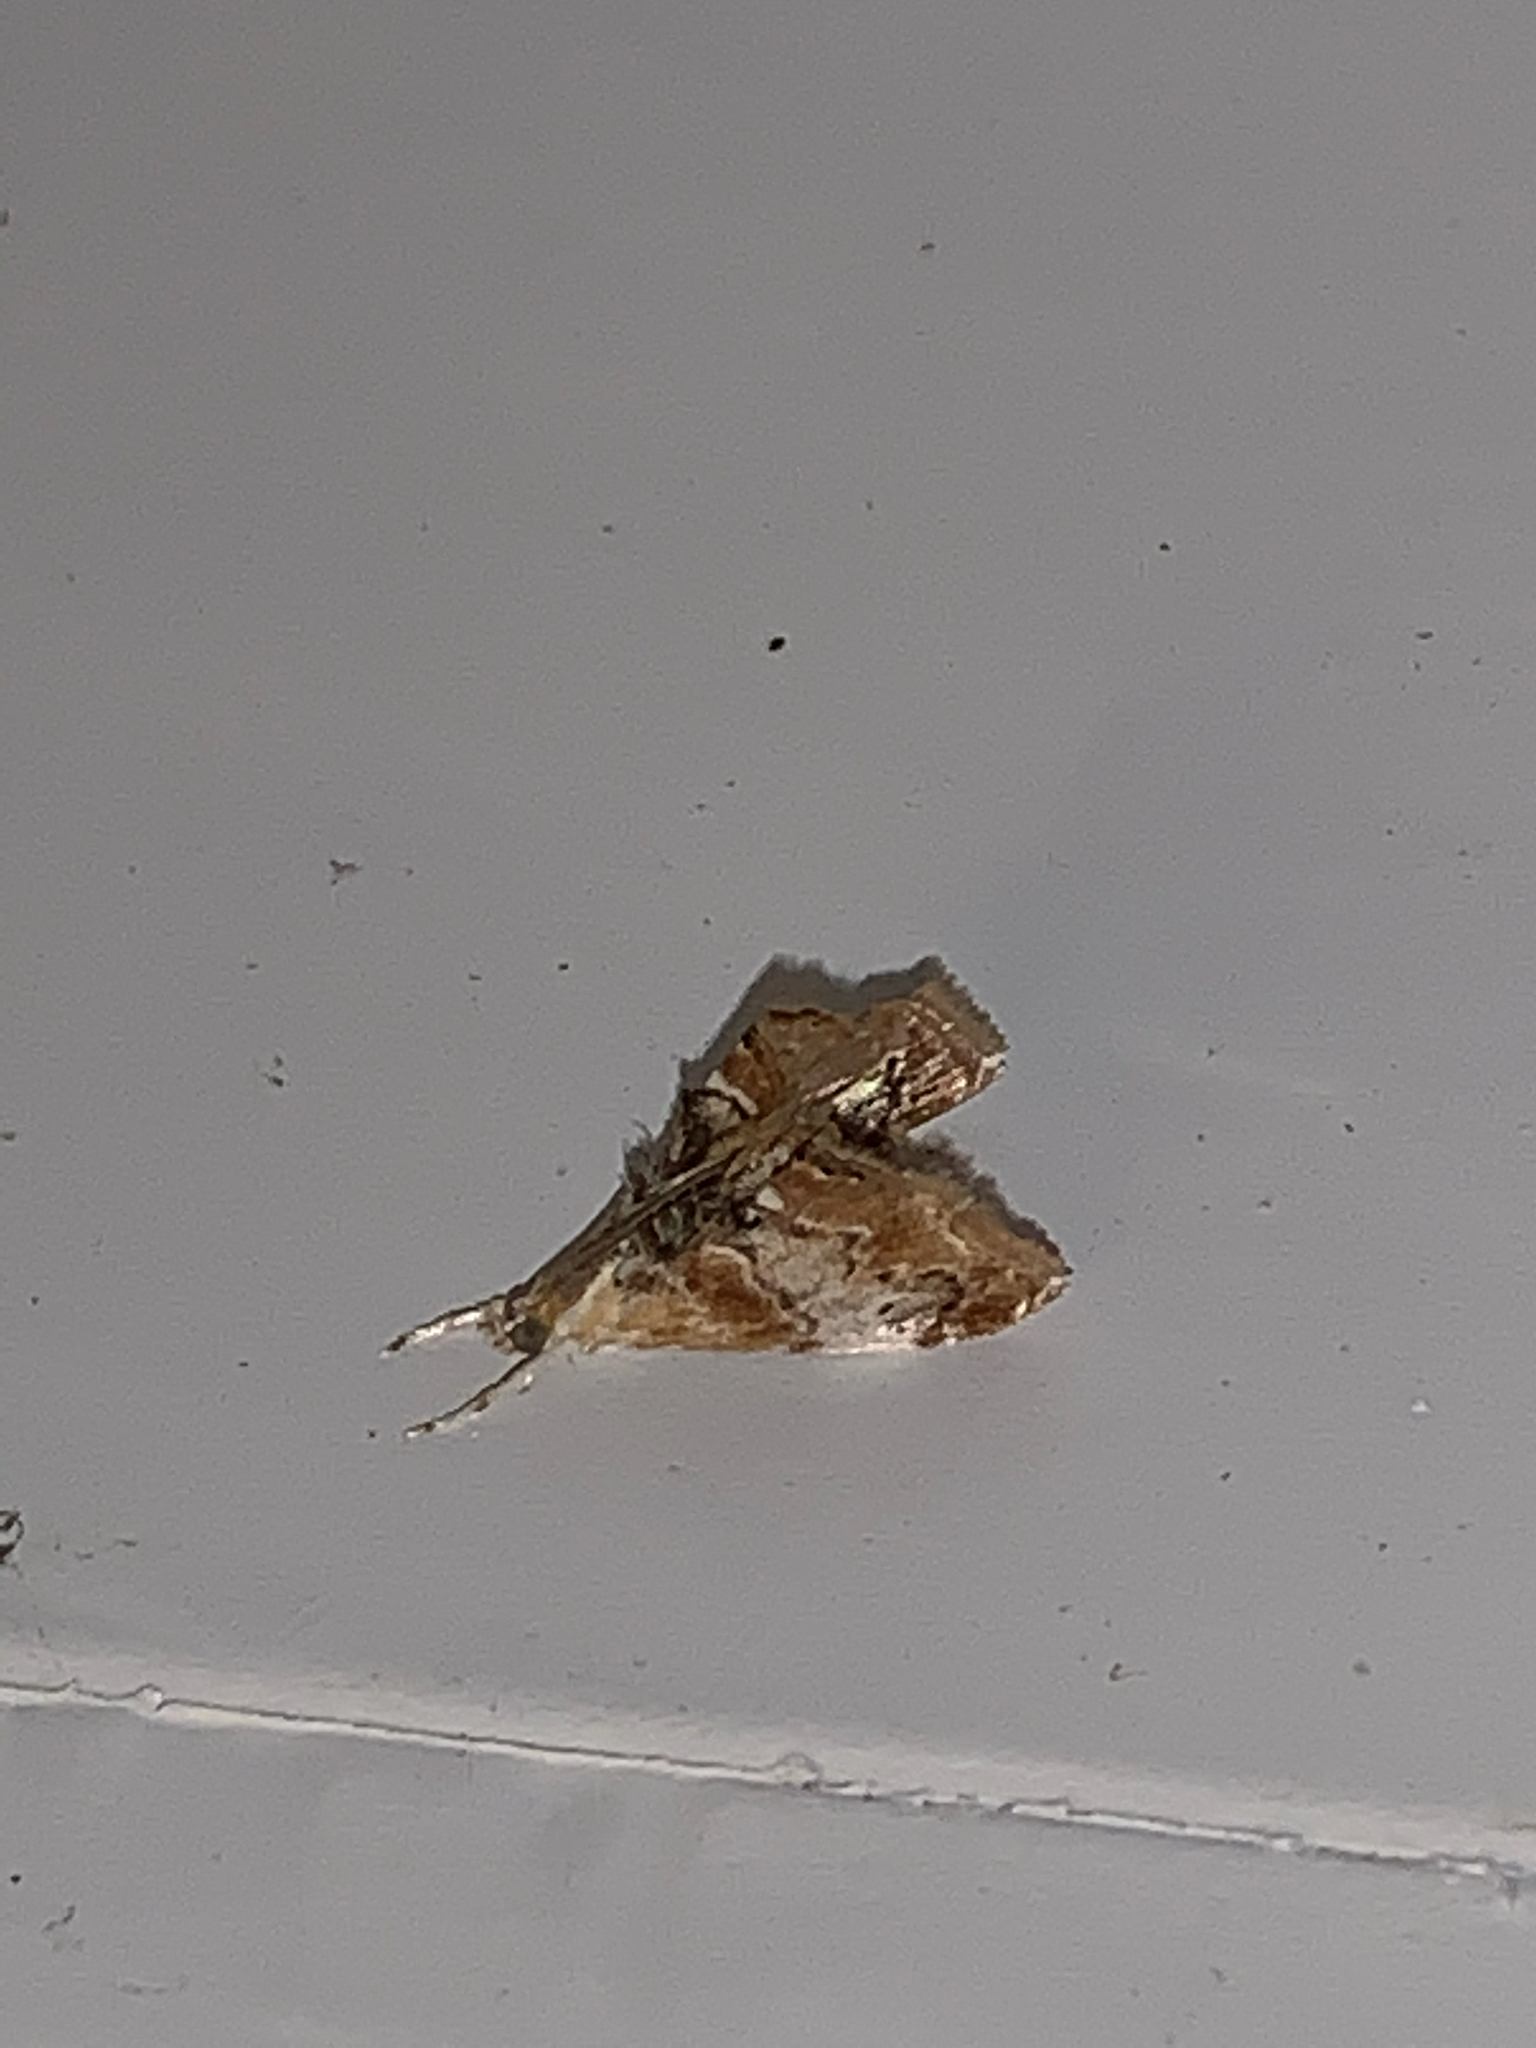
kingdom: Animalia
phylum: Arthropoda
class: Insecta
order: Lepidoptera
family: Crambidae
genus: Dicymolomia
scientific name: Dicymolomia julianalis
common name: Julia's dicymolomia moth
